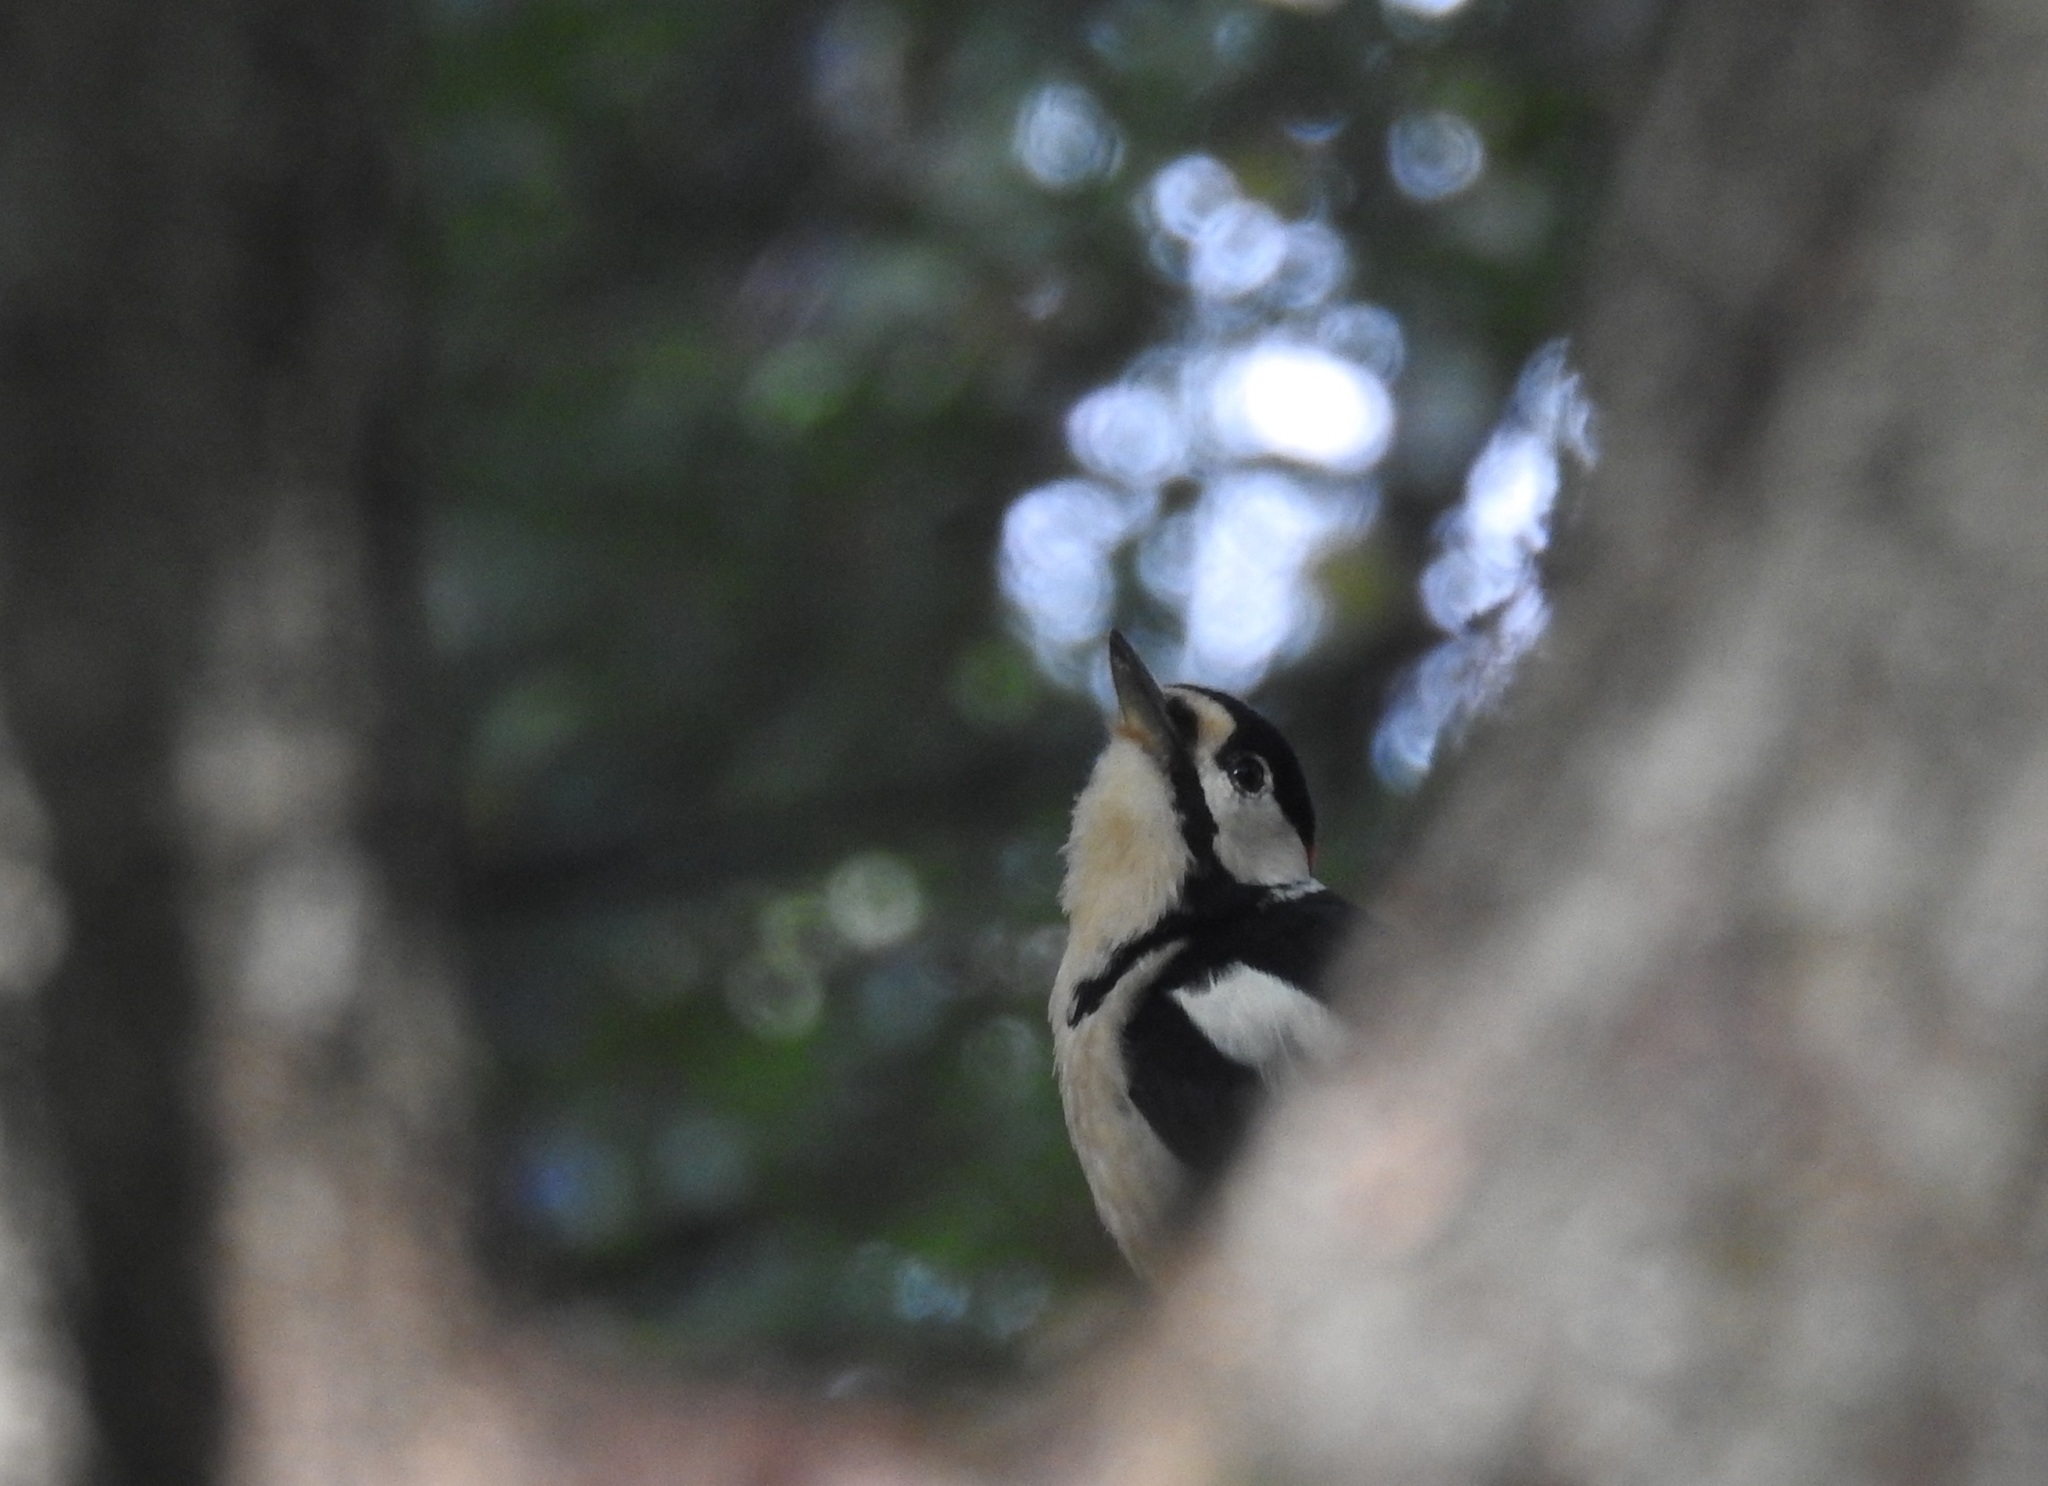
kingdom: Animalia
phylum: Chordata
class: Aves
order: Piciformes
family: Picidae
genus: Dendrocopos
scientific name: Dendrocopos major
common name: Great spotted woodpecker
